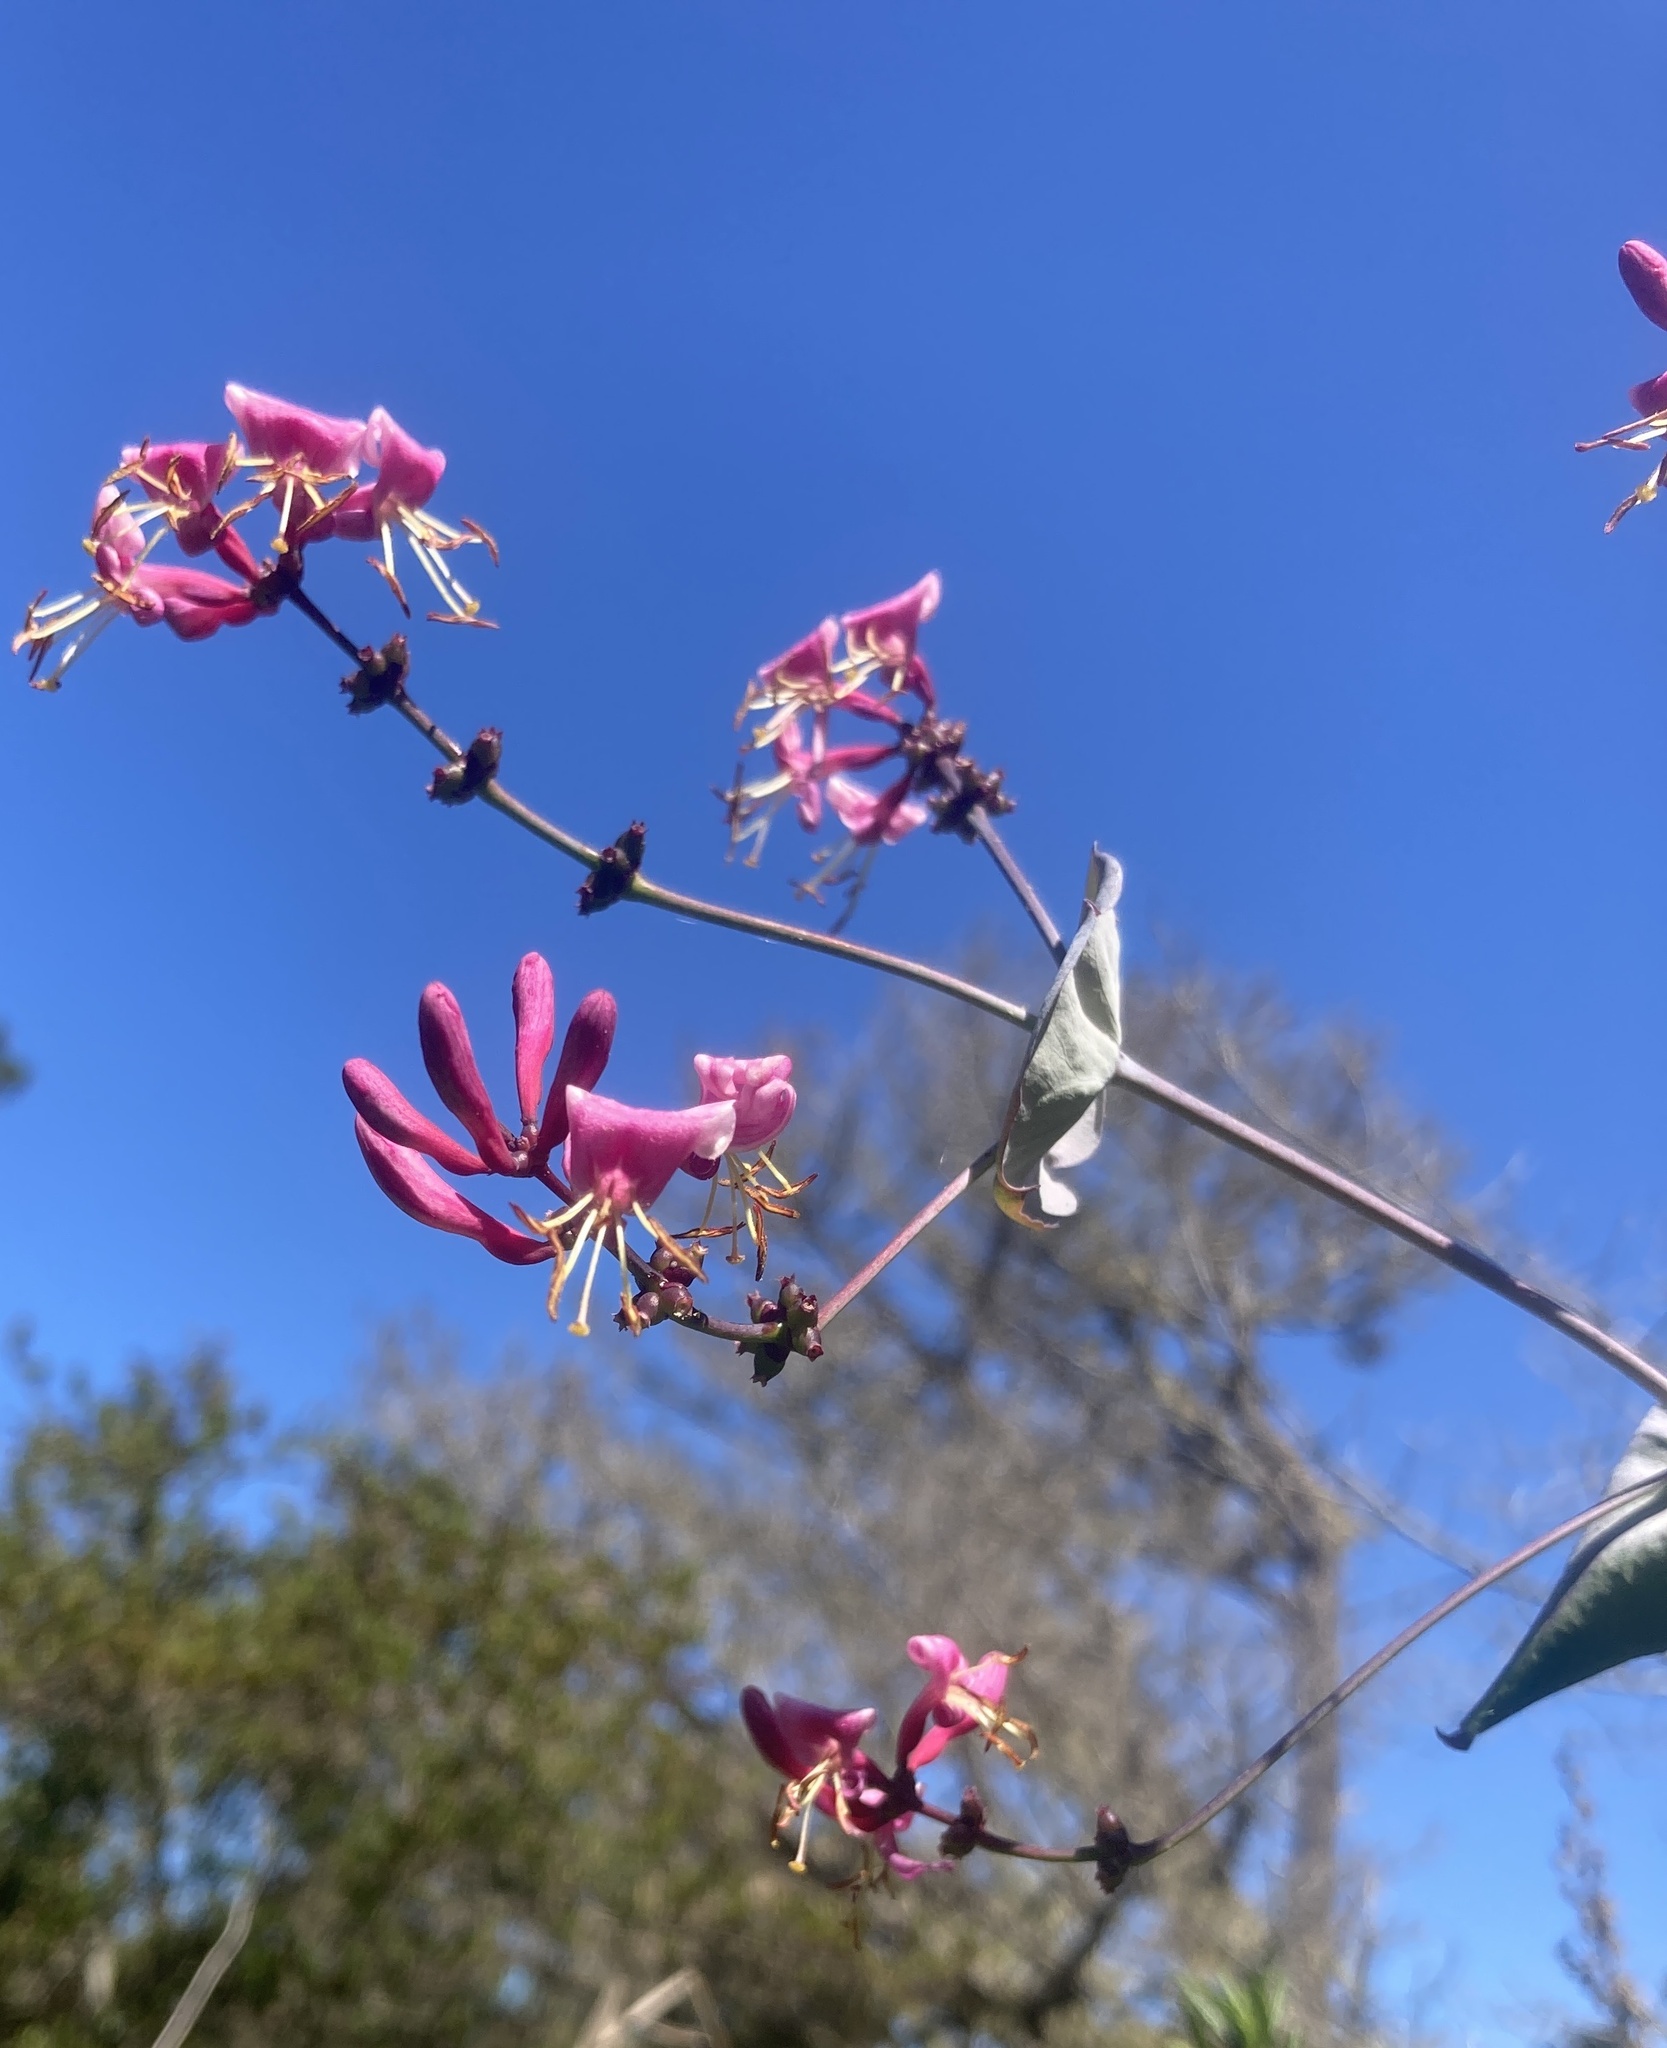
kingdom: Plantae
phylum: Tracheophyta
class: Magnoliopsida
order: Dipsacales
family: Caprifoliaceae
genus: Lonicera
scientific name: Lonicera hispidula
